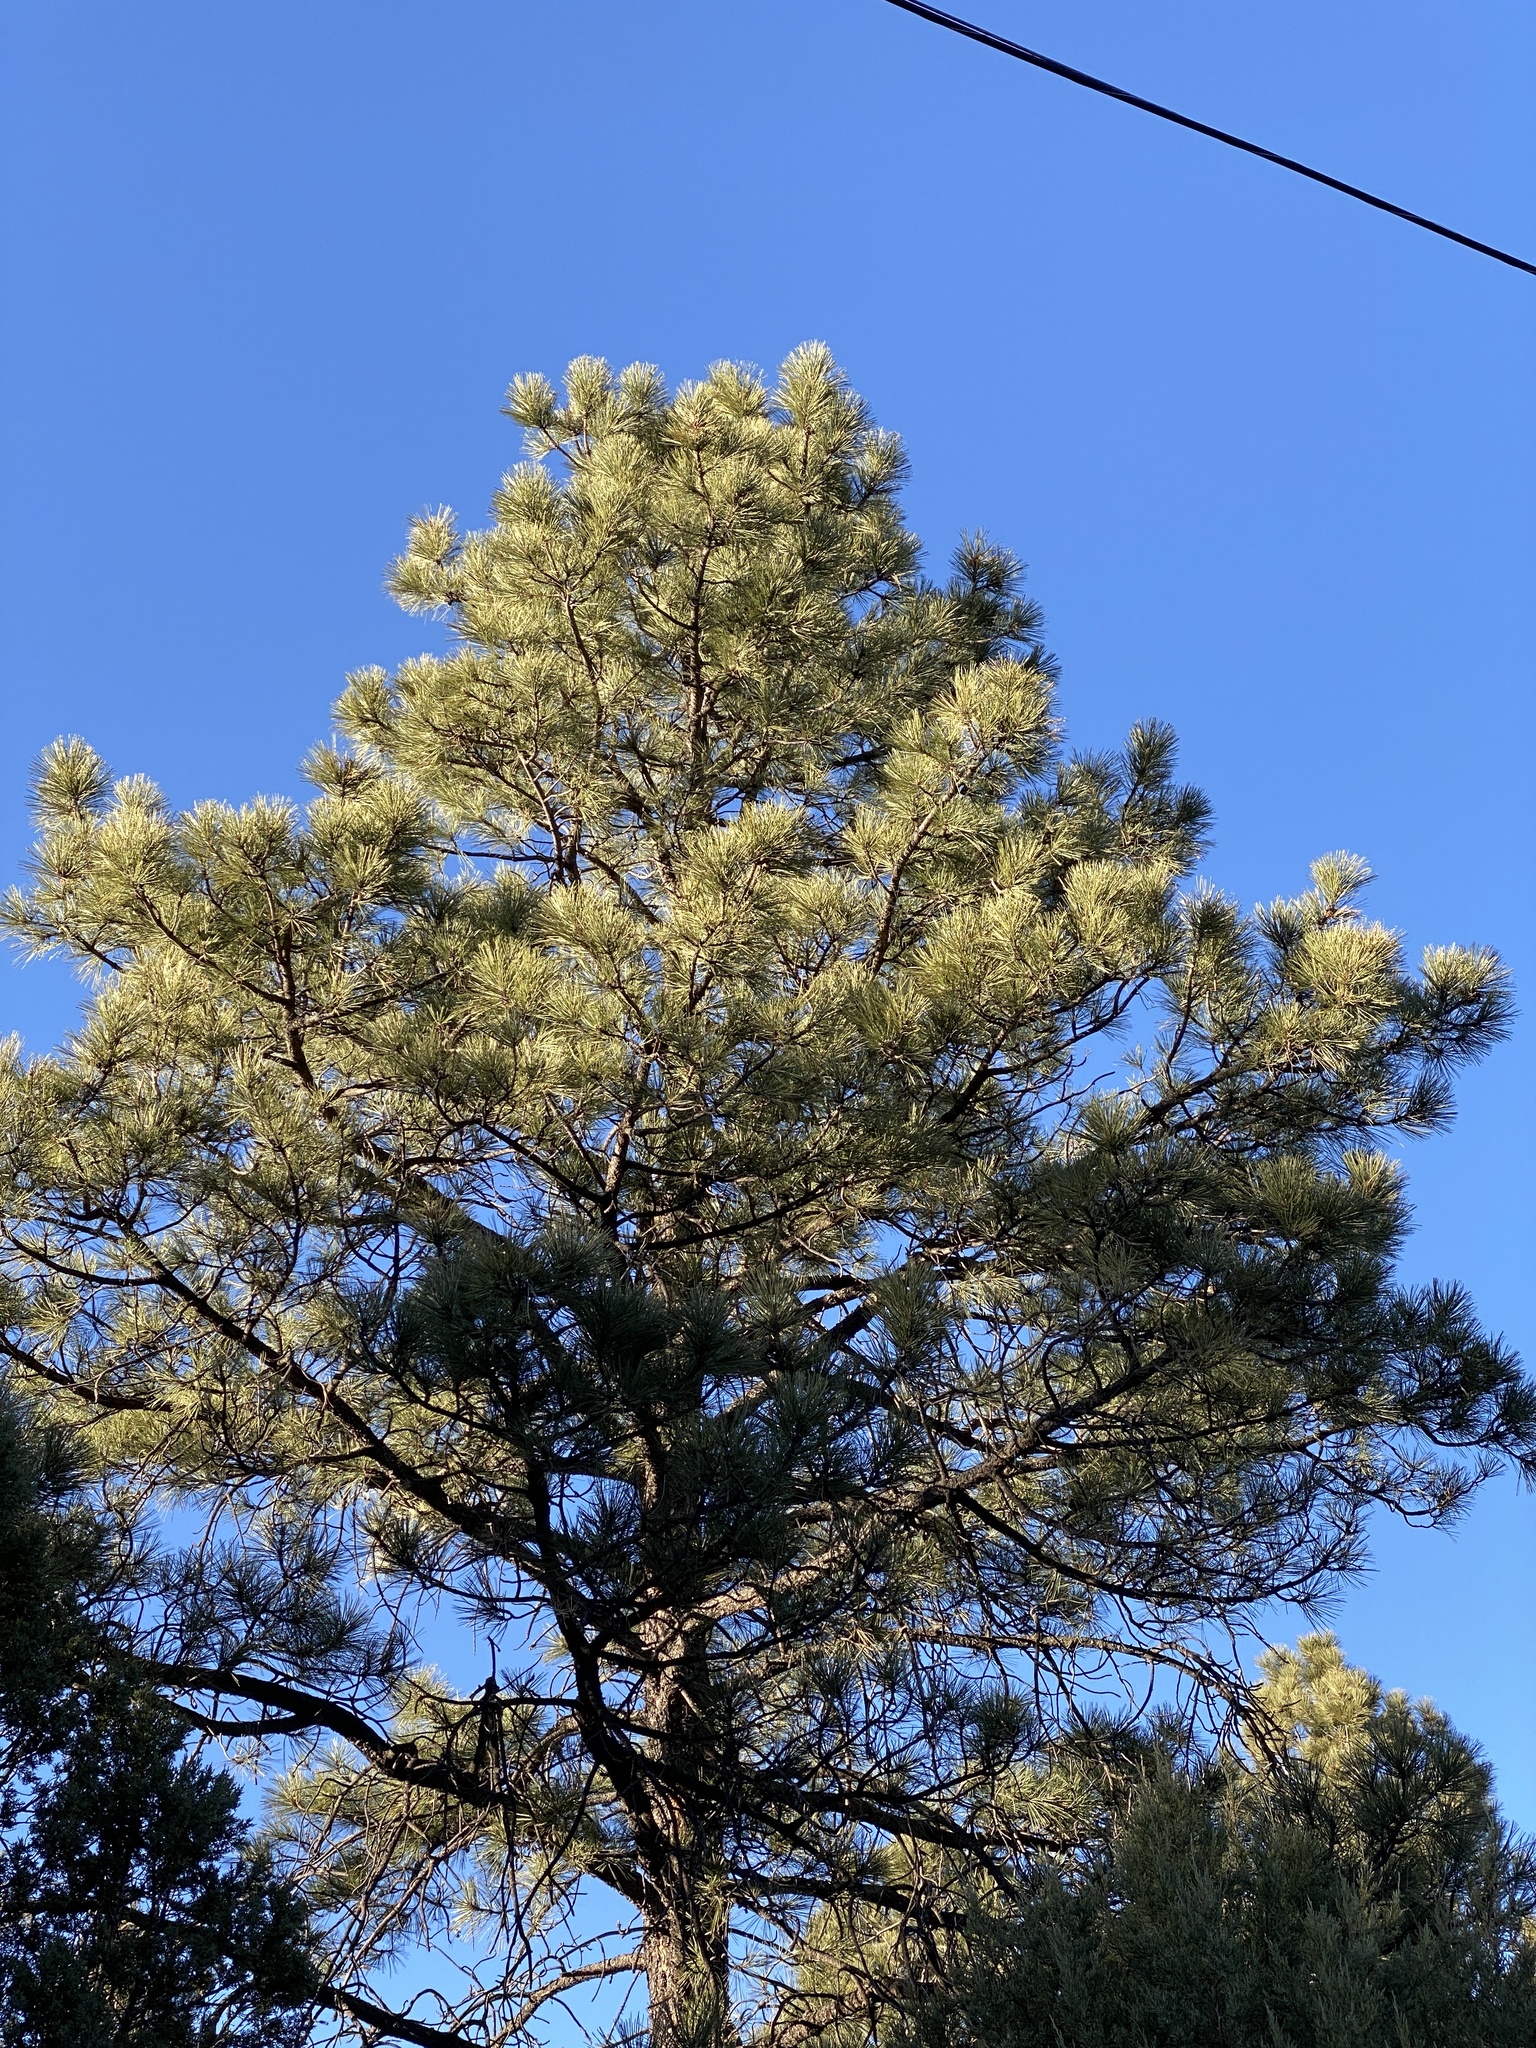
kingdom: Plantae
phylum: Tracheophyta
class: Pinopsida
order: Pinales
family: Pinaceae
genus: Pinus
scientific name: Pinus ponderosa
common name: Western yellow-pine
